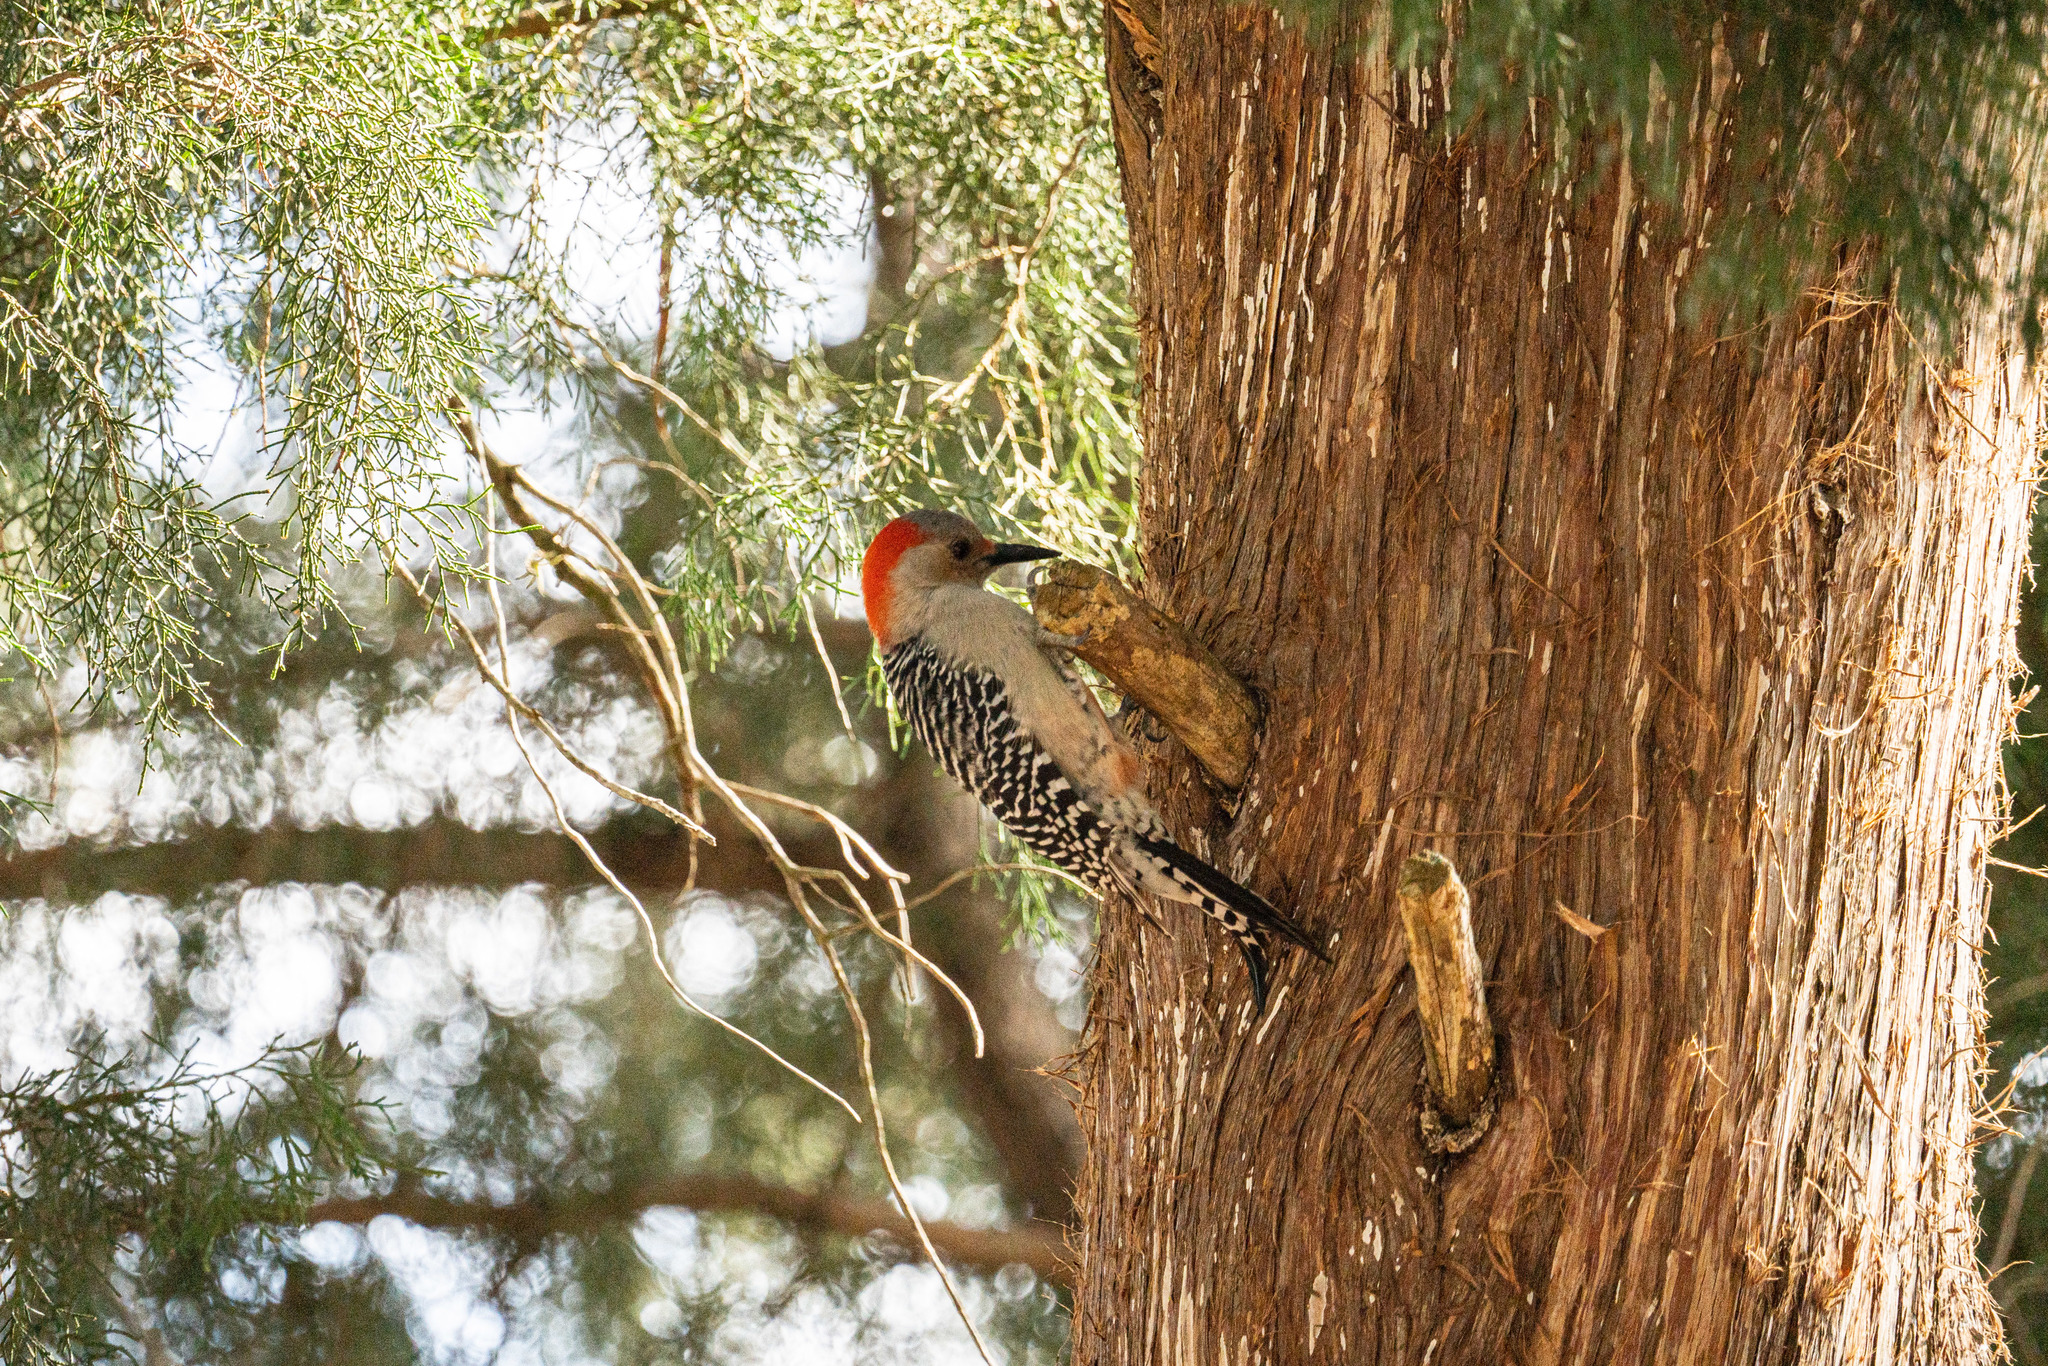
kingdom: Animalia
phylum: Chordata
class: Aves
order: Piciformes
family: Picidae
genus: Melanerpes
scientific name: Melanerpes carolinus
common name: Red-bellied woodpecker
